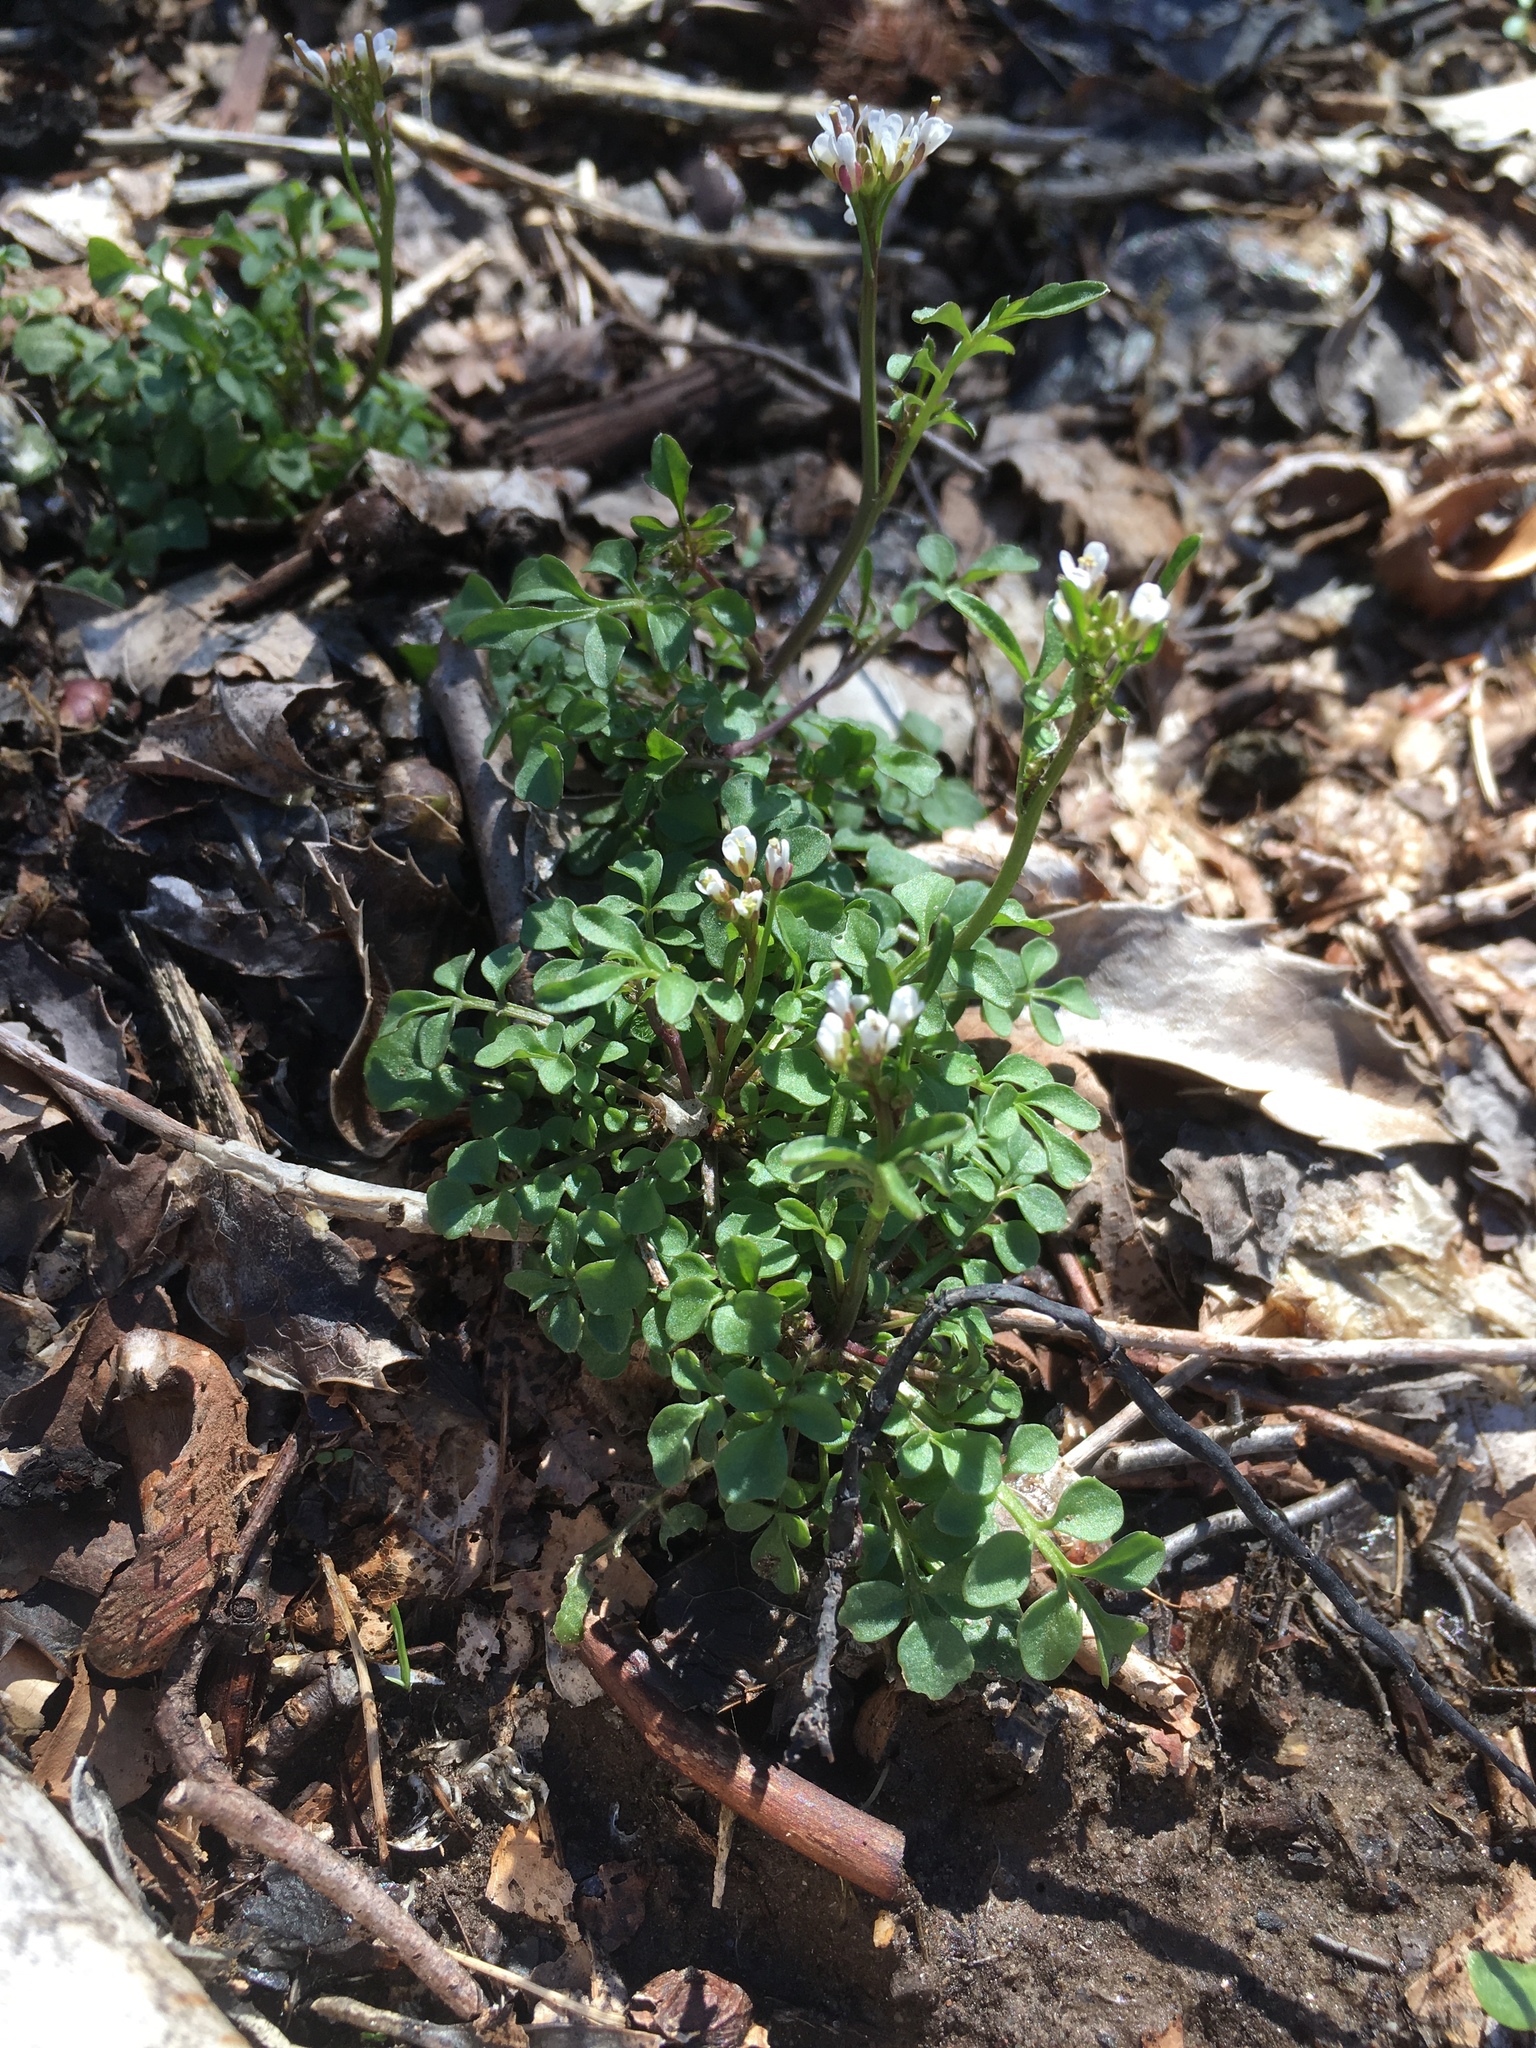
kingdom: Plantae
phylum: Tracheophyta
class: Magnoliopsida
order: Brassicales
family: Brassicaceae
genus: Cardamine
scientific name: Cardamine hirsuta
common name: Hairy bittercress
